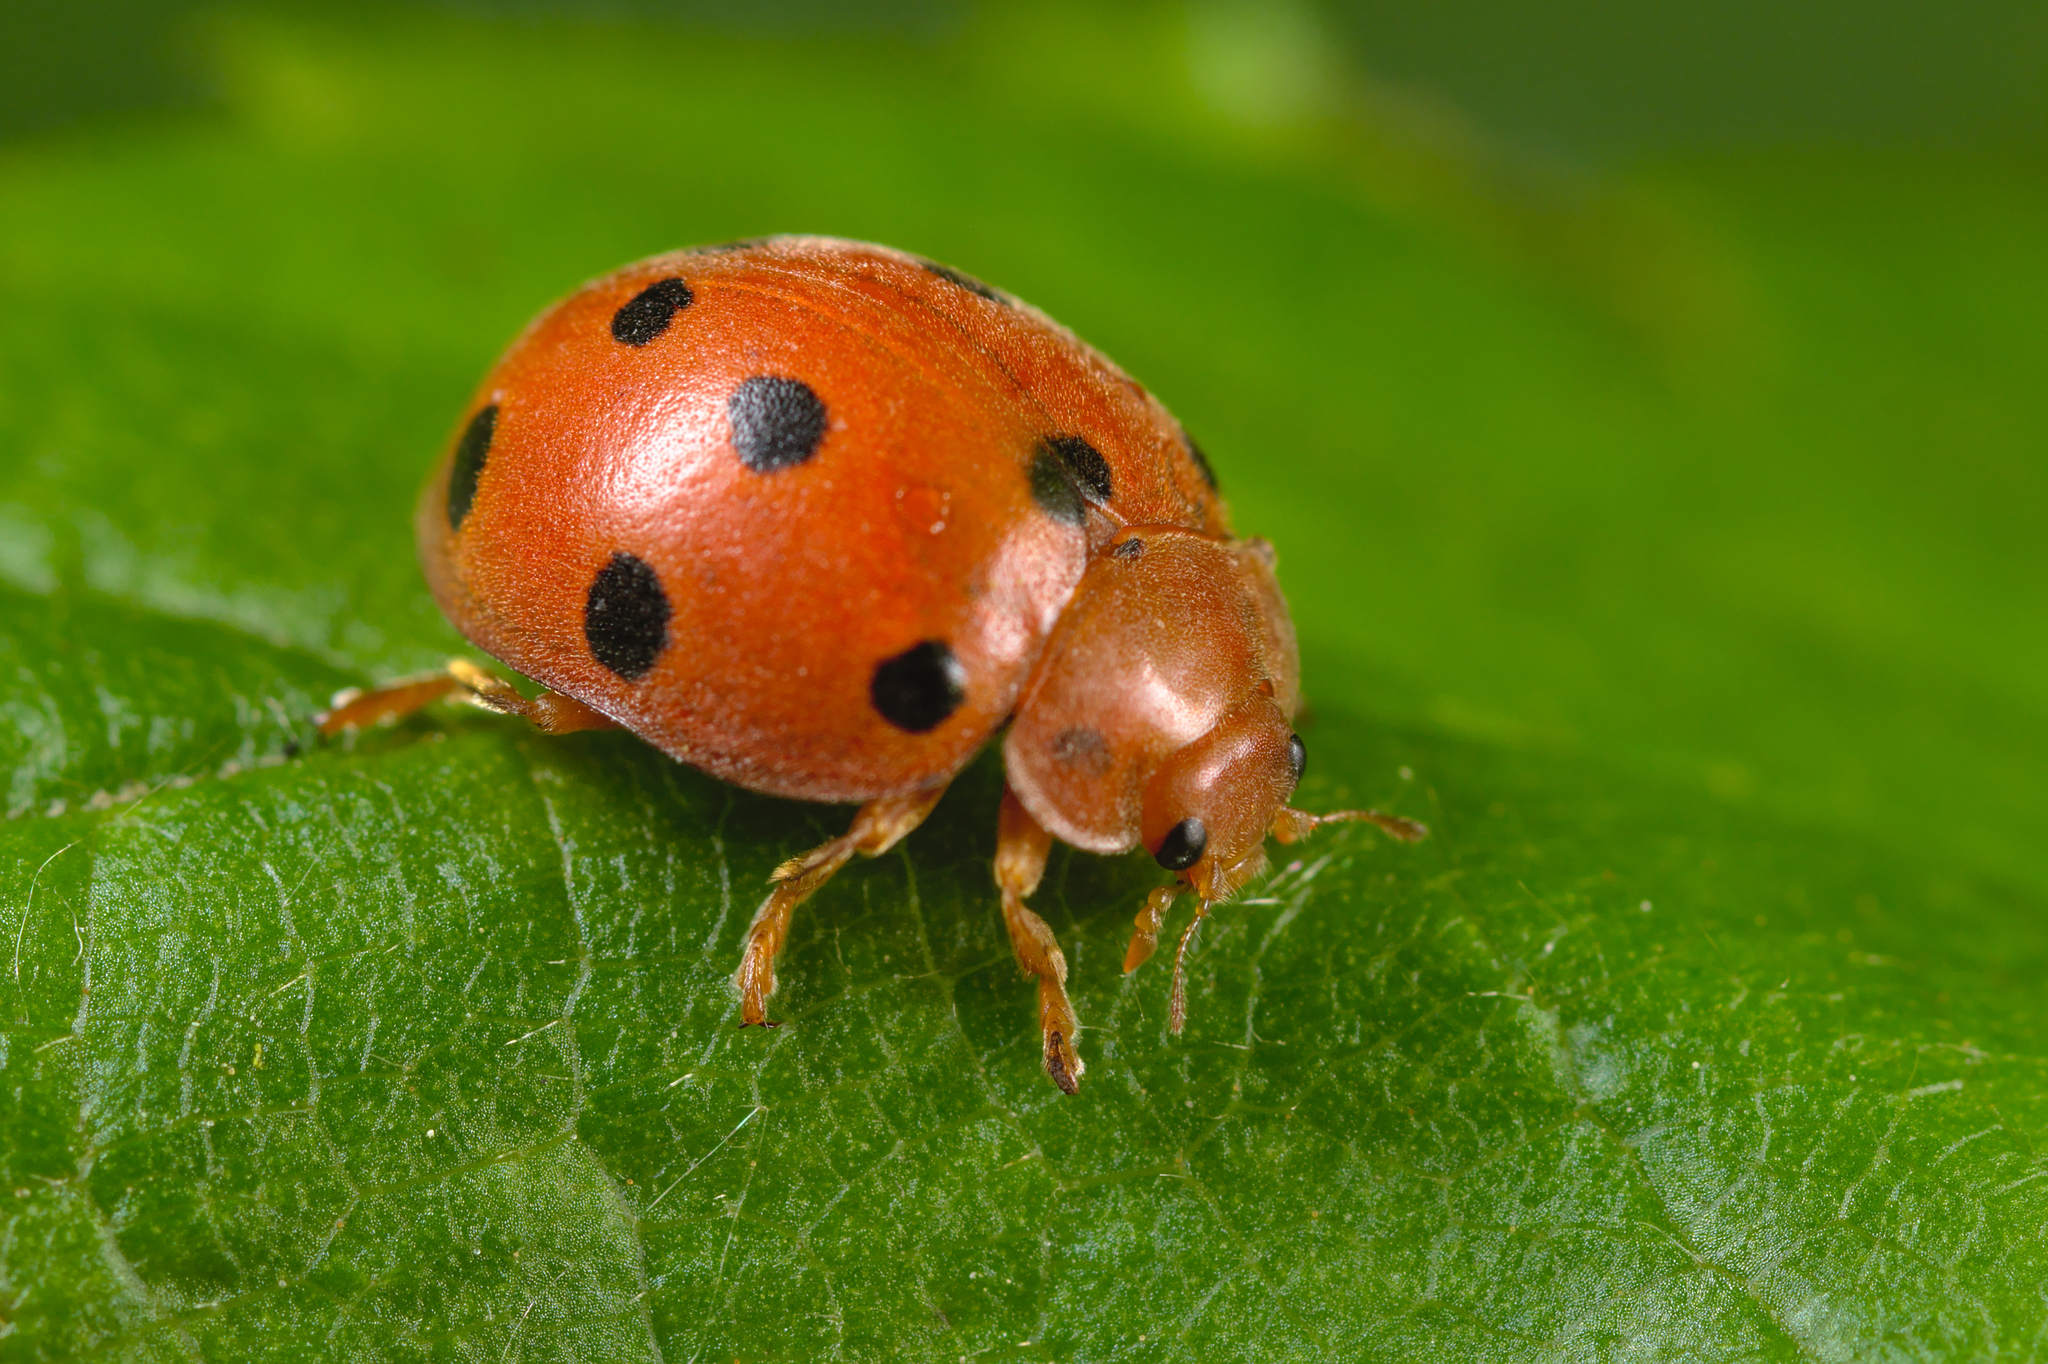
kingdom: Animalia
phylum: Arthropoda
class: Insecta
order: Coleoptera
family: Coccinellidae
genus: Henosepilachna
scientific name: Henosepilachna argus
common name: Bryony ladybird
